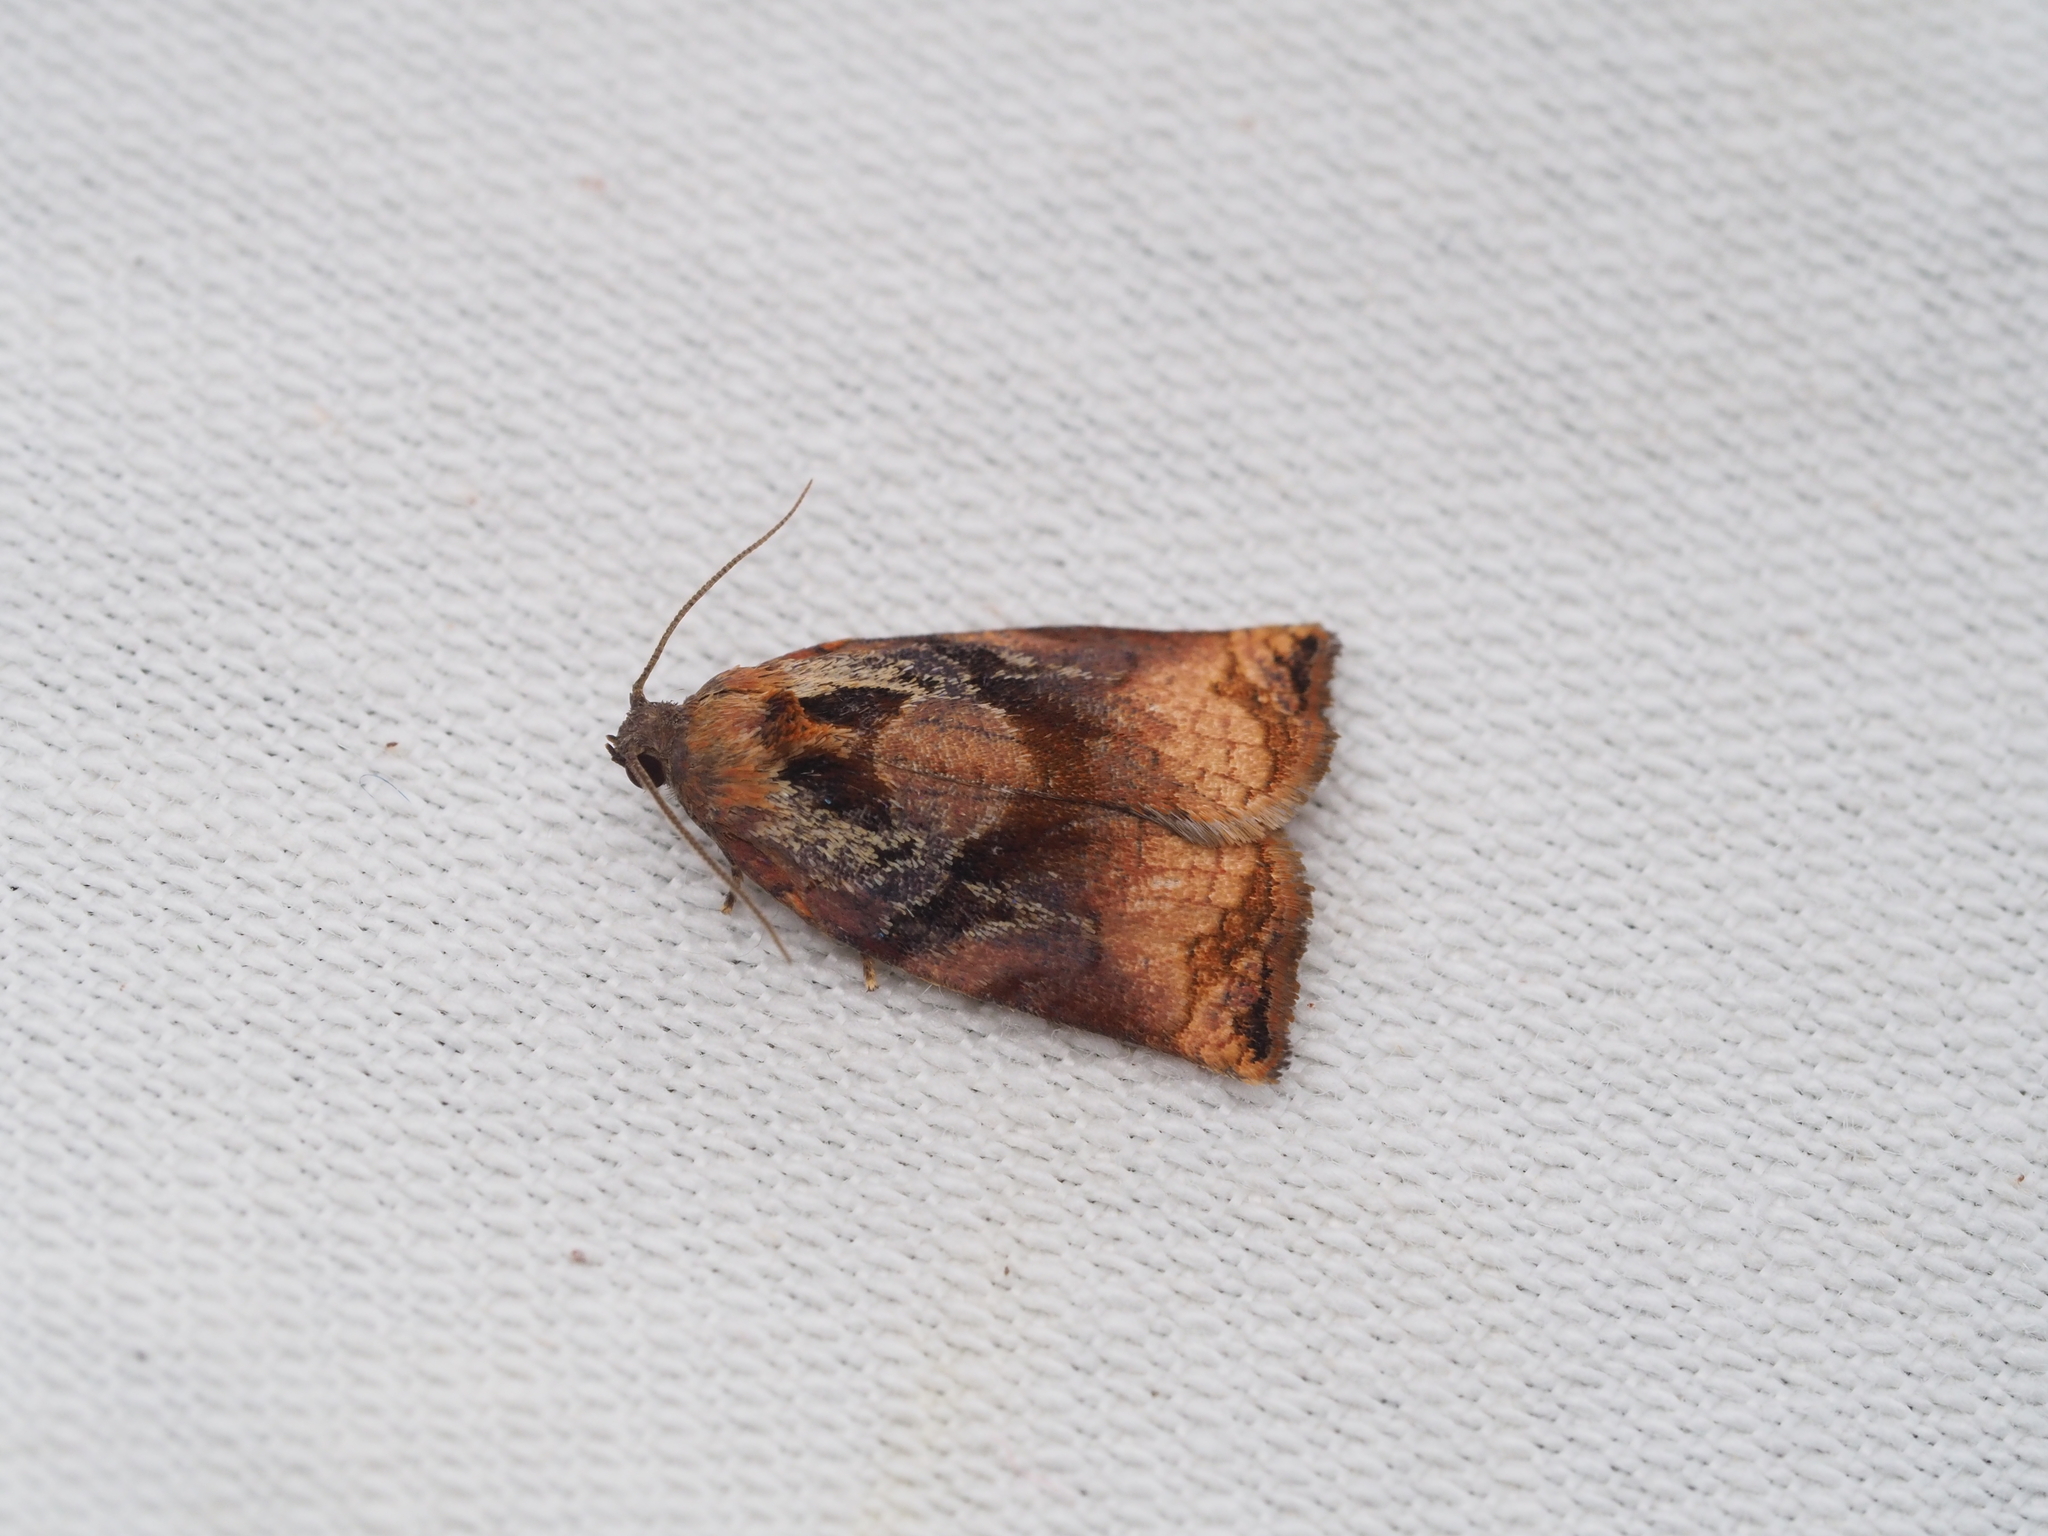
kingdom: Animalia
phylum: Arthropoda
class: Insecta
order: Lepidoptera
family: Tortricidae
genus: Archips
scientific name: Archips podana
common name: Large fruit-tree tortrix
